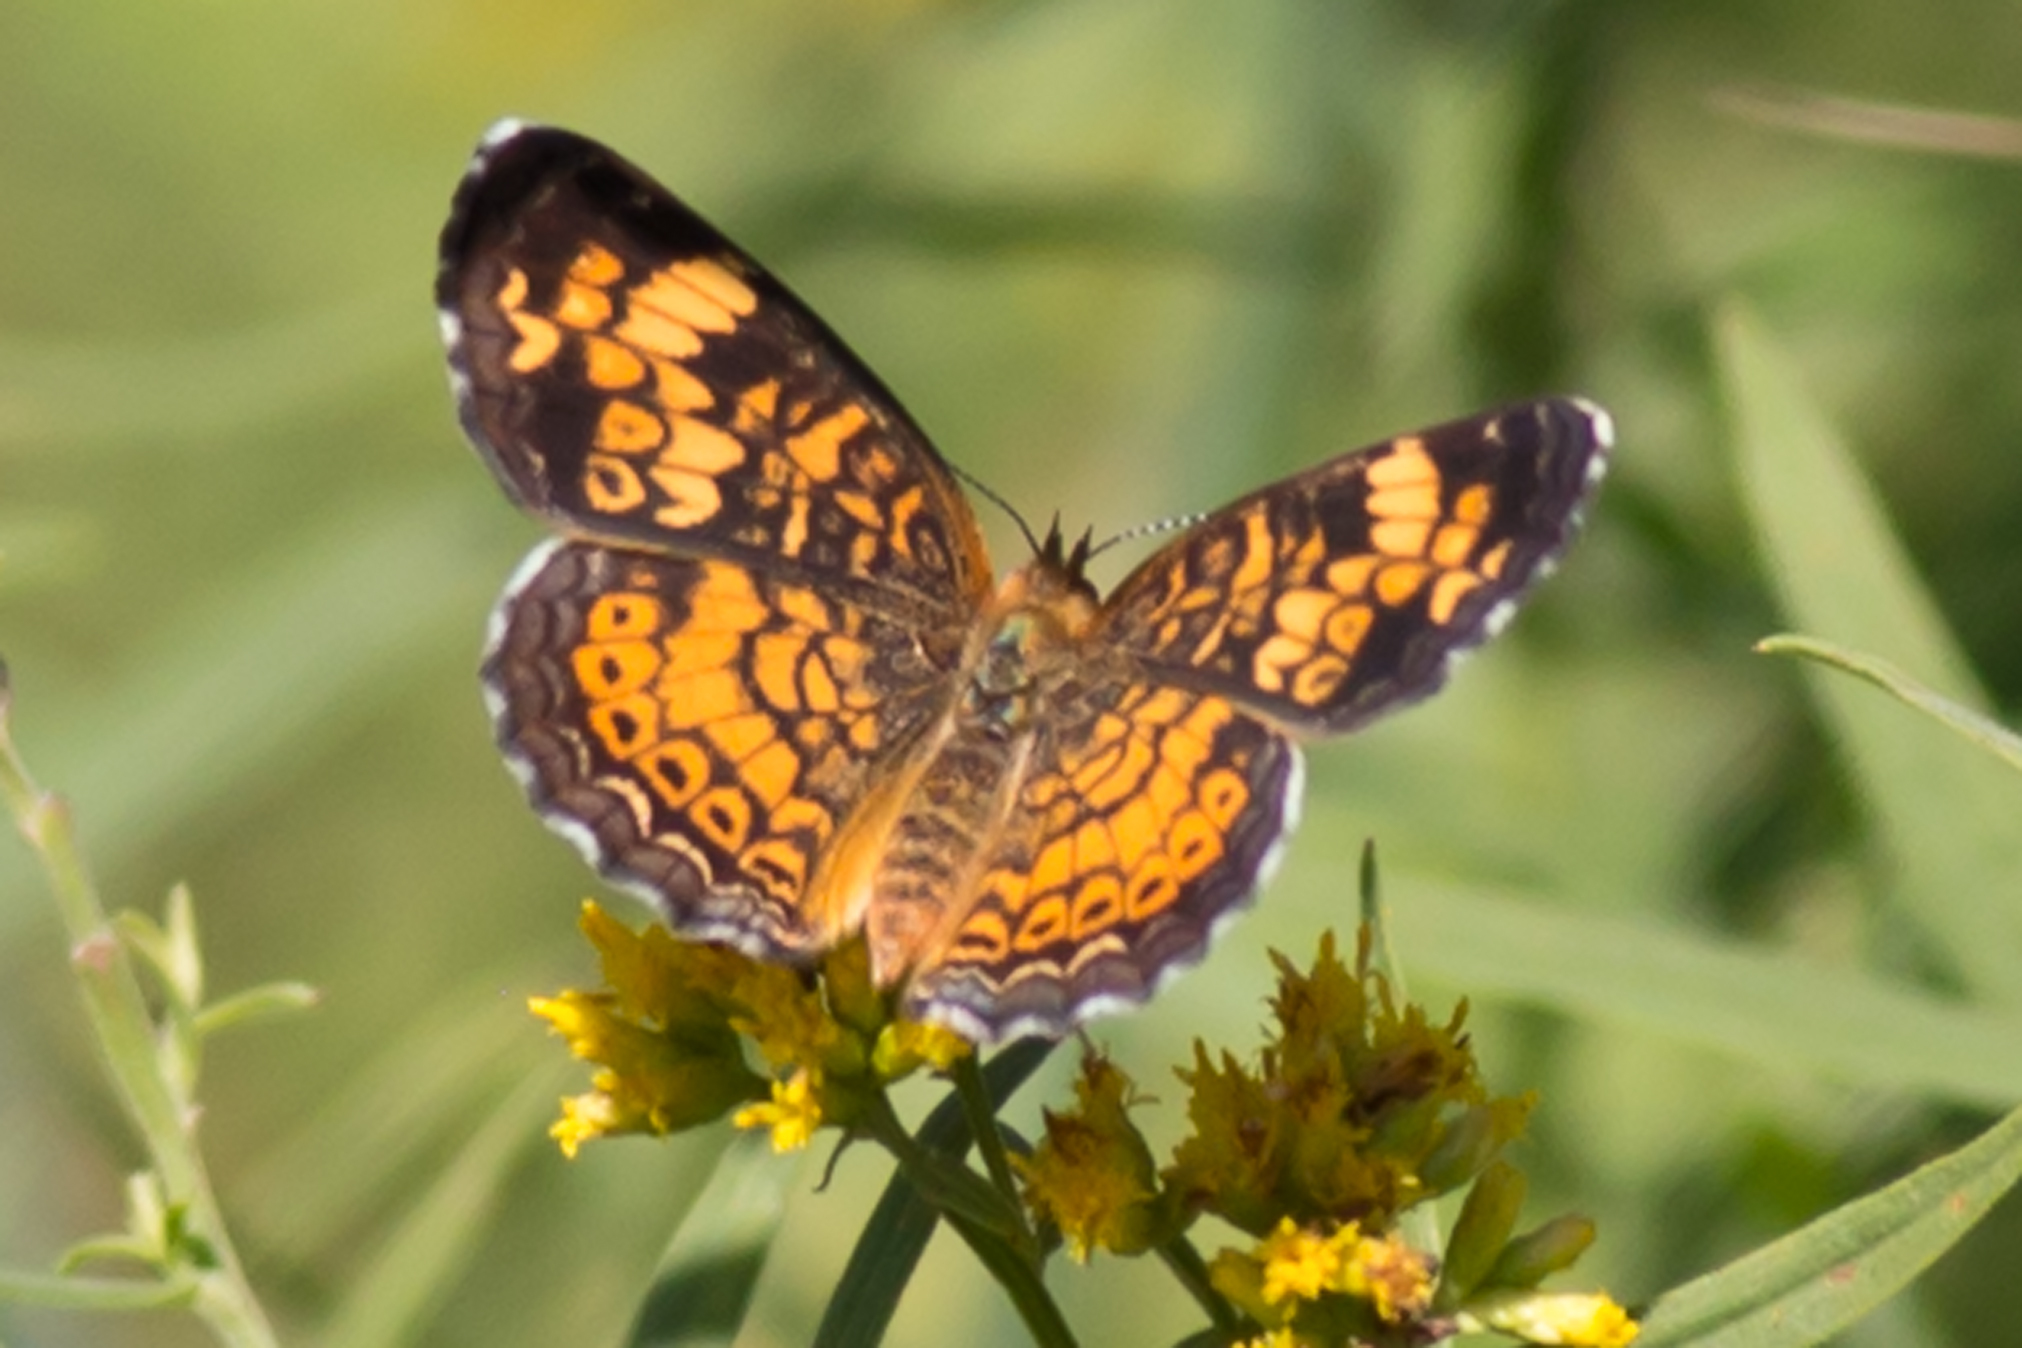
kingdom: Animalia
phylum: Arthropoda
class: Insecta
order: Lepidoptera
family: Nymphalidae
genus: Phyciodes
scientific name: Phyciodes tharos
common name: Pearl crescent
